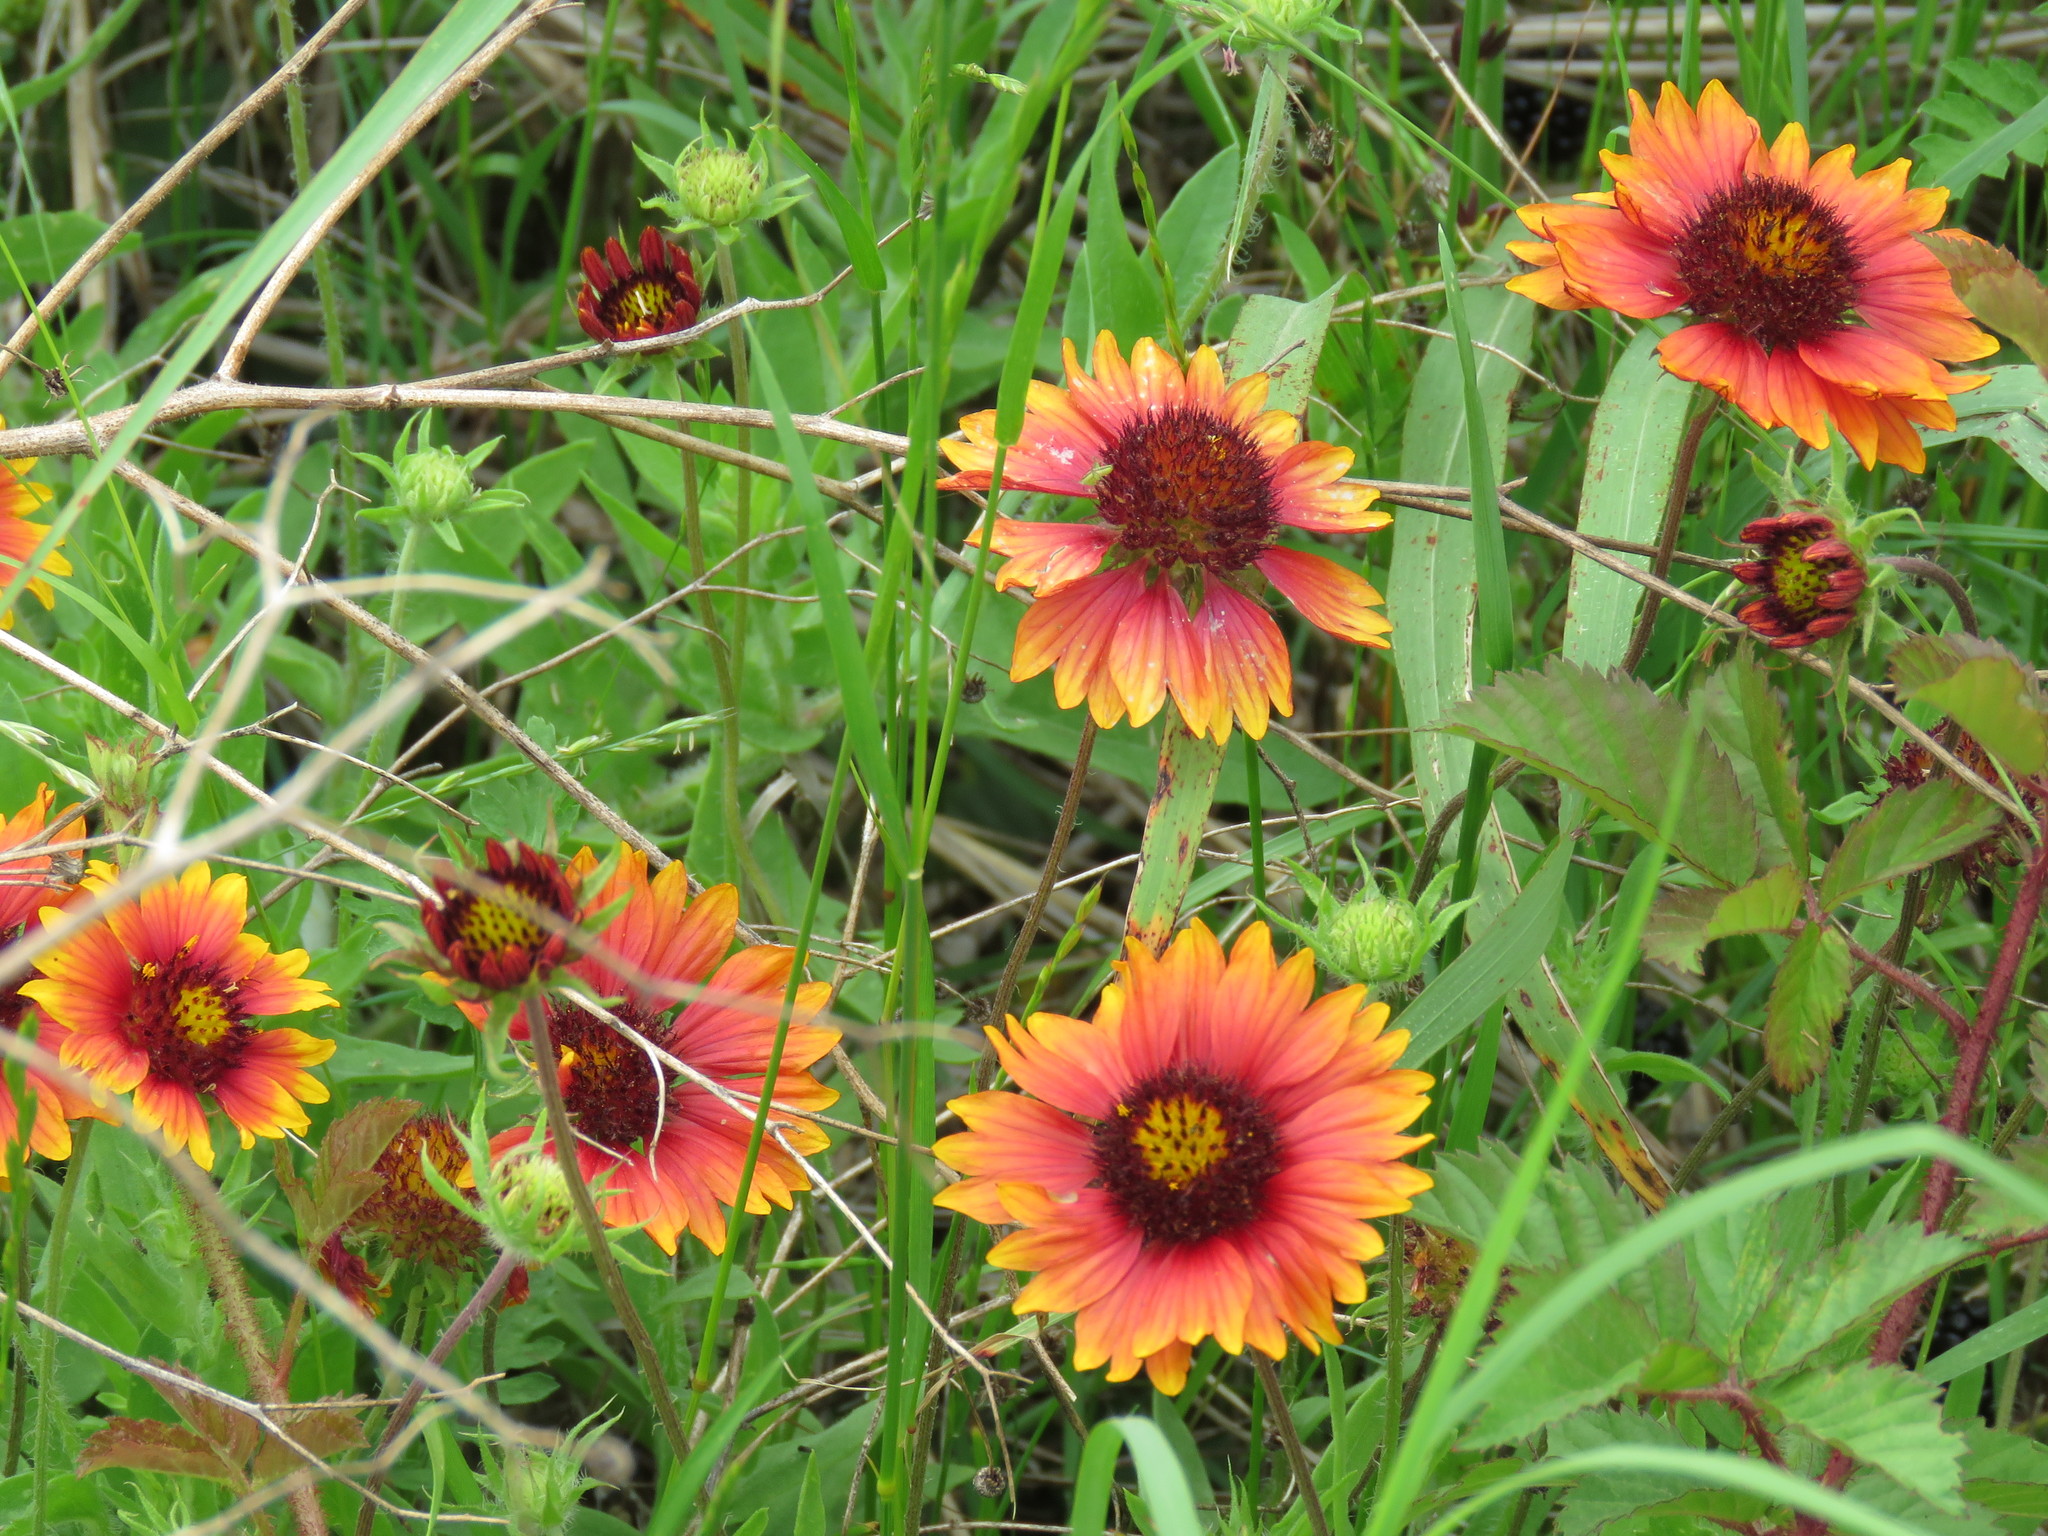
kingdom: Plantae
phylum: Tracheophyta
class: Magnoliopsida
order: Asterales
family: Asteraceae
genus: Gaillardia
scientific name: Gaillardia pulchella
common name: Firewheel
